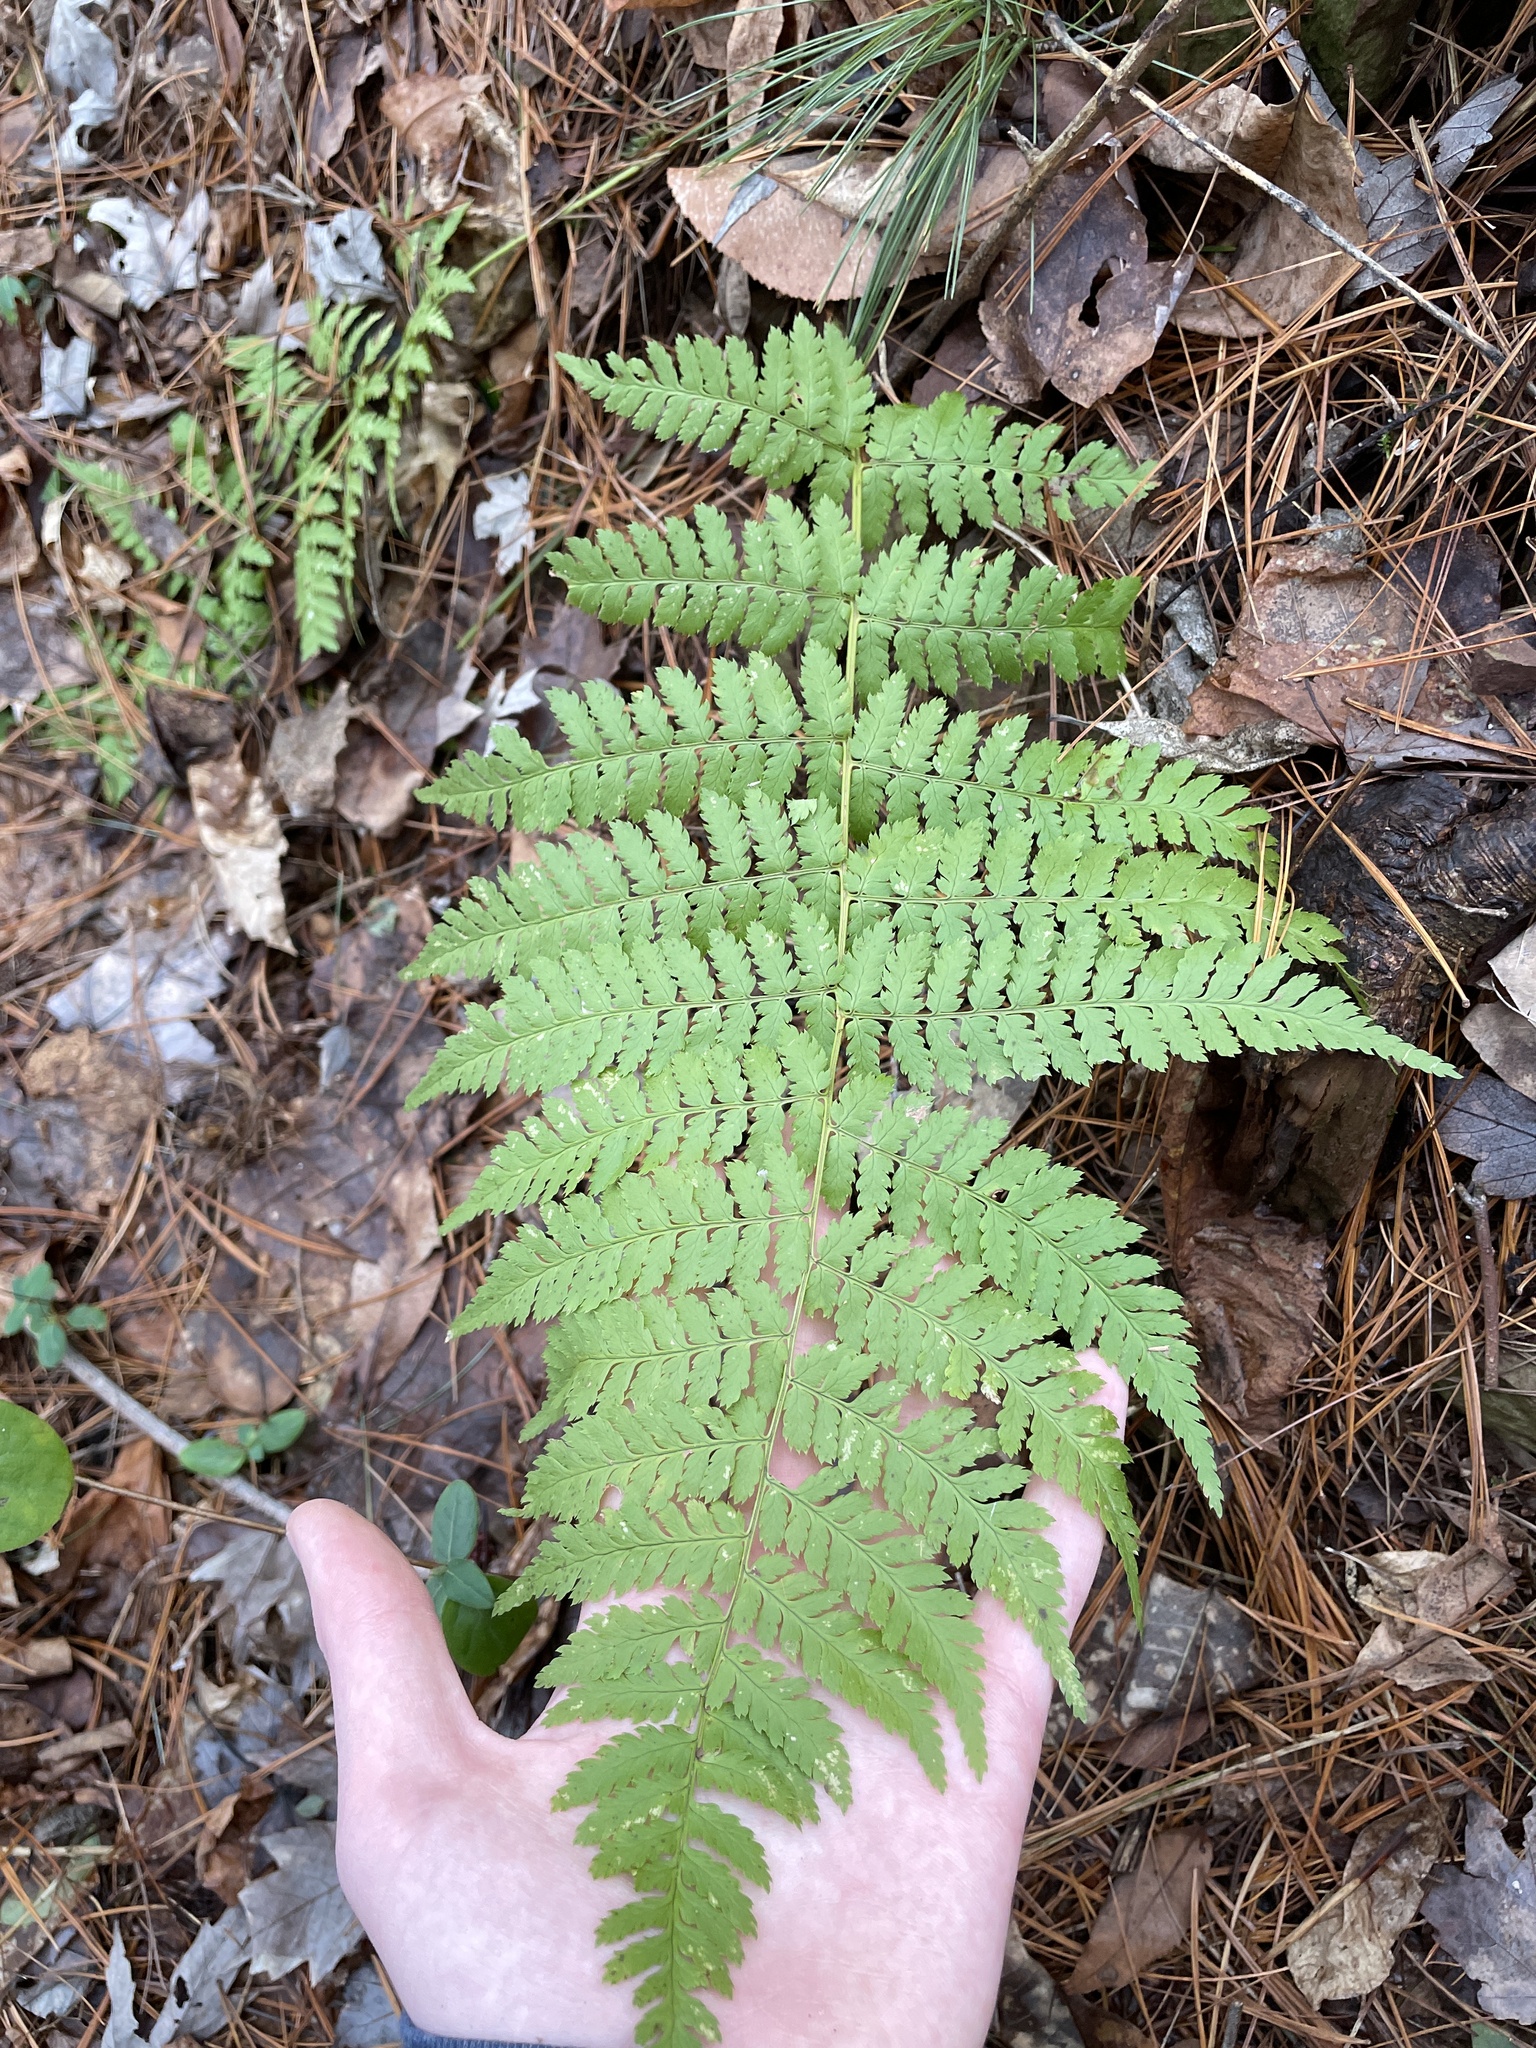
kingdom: Plantae
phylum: Tracheophyta
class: Polypodiopsida
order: Polypodiales
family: Dryopteridaceae
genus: Dryopteris
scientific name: Dryopteris intermedia
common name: Evergreen wood fern
